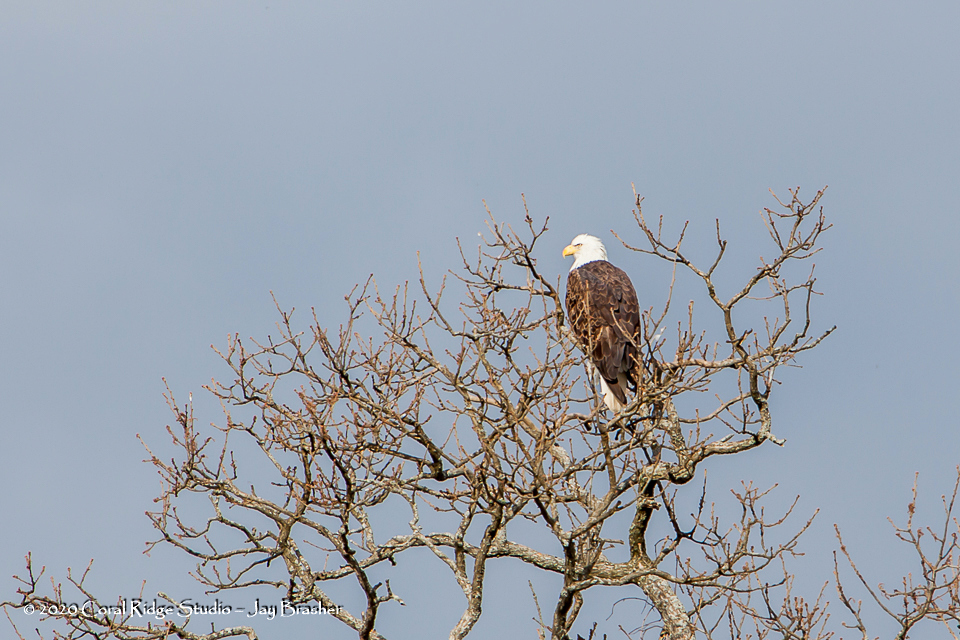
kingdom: Animalia
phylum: Chordata
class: Aves
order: Accipitriformes
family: Accipitridae
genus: Haliaeetus
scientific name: Haliaeetus leucocephalus
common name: Bald eagle
